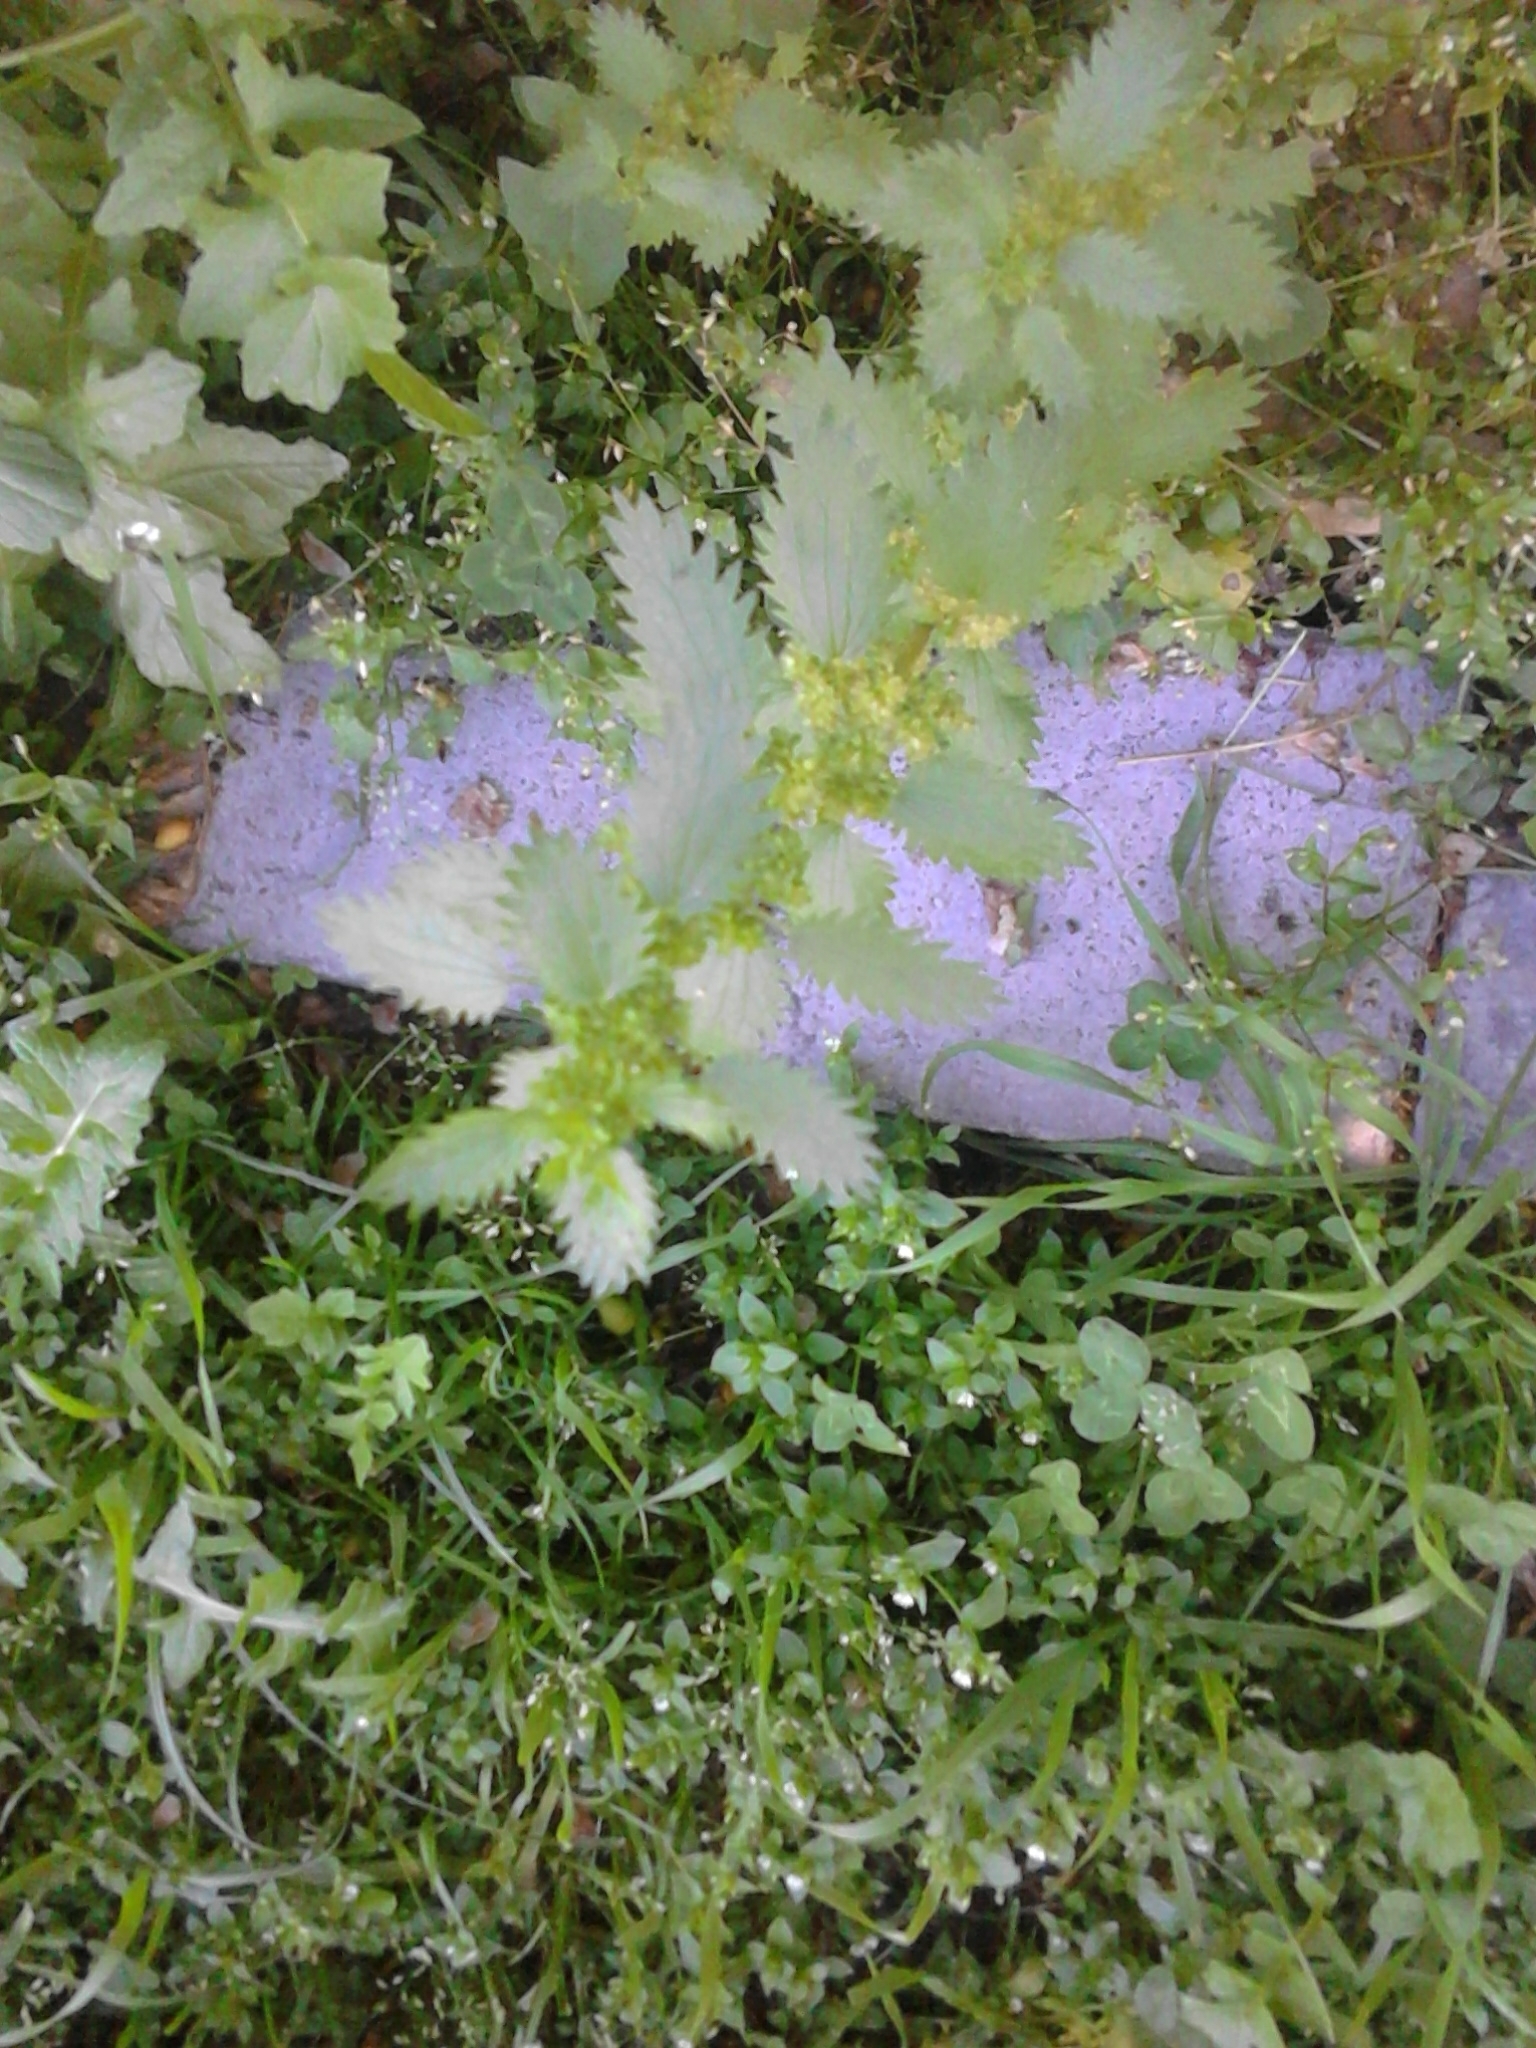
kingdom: Plantae
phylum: Tracheophyta
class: Magnoliopsida
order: Rosales
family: Urticaceae
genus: Urtica
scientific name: Urtica urens
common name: Dwarf nettle
